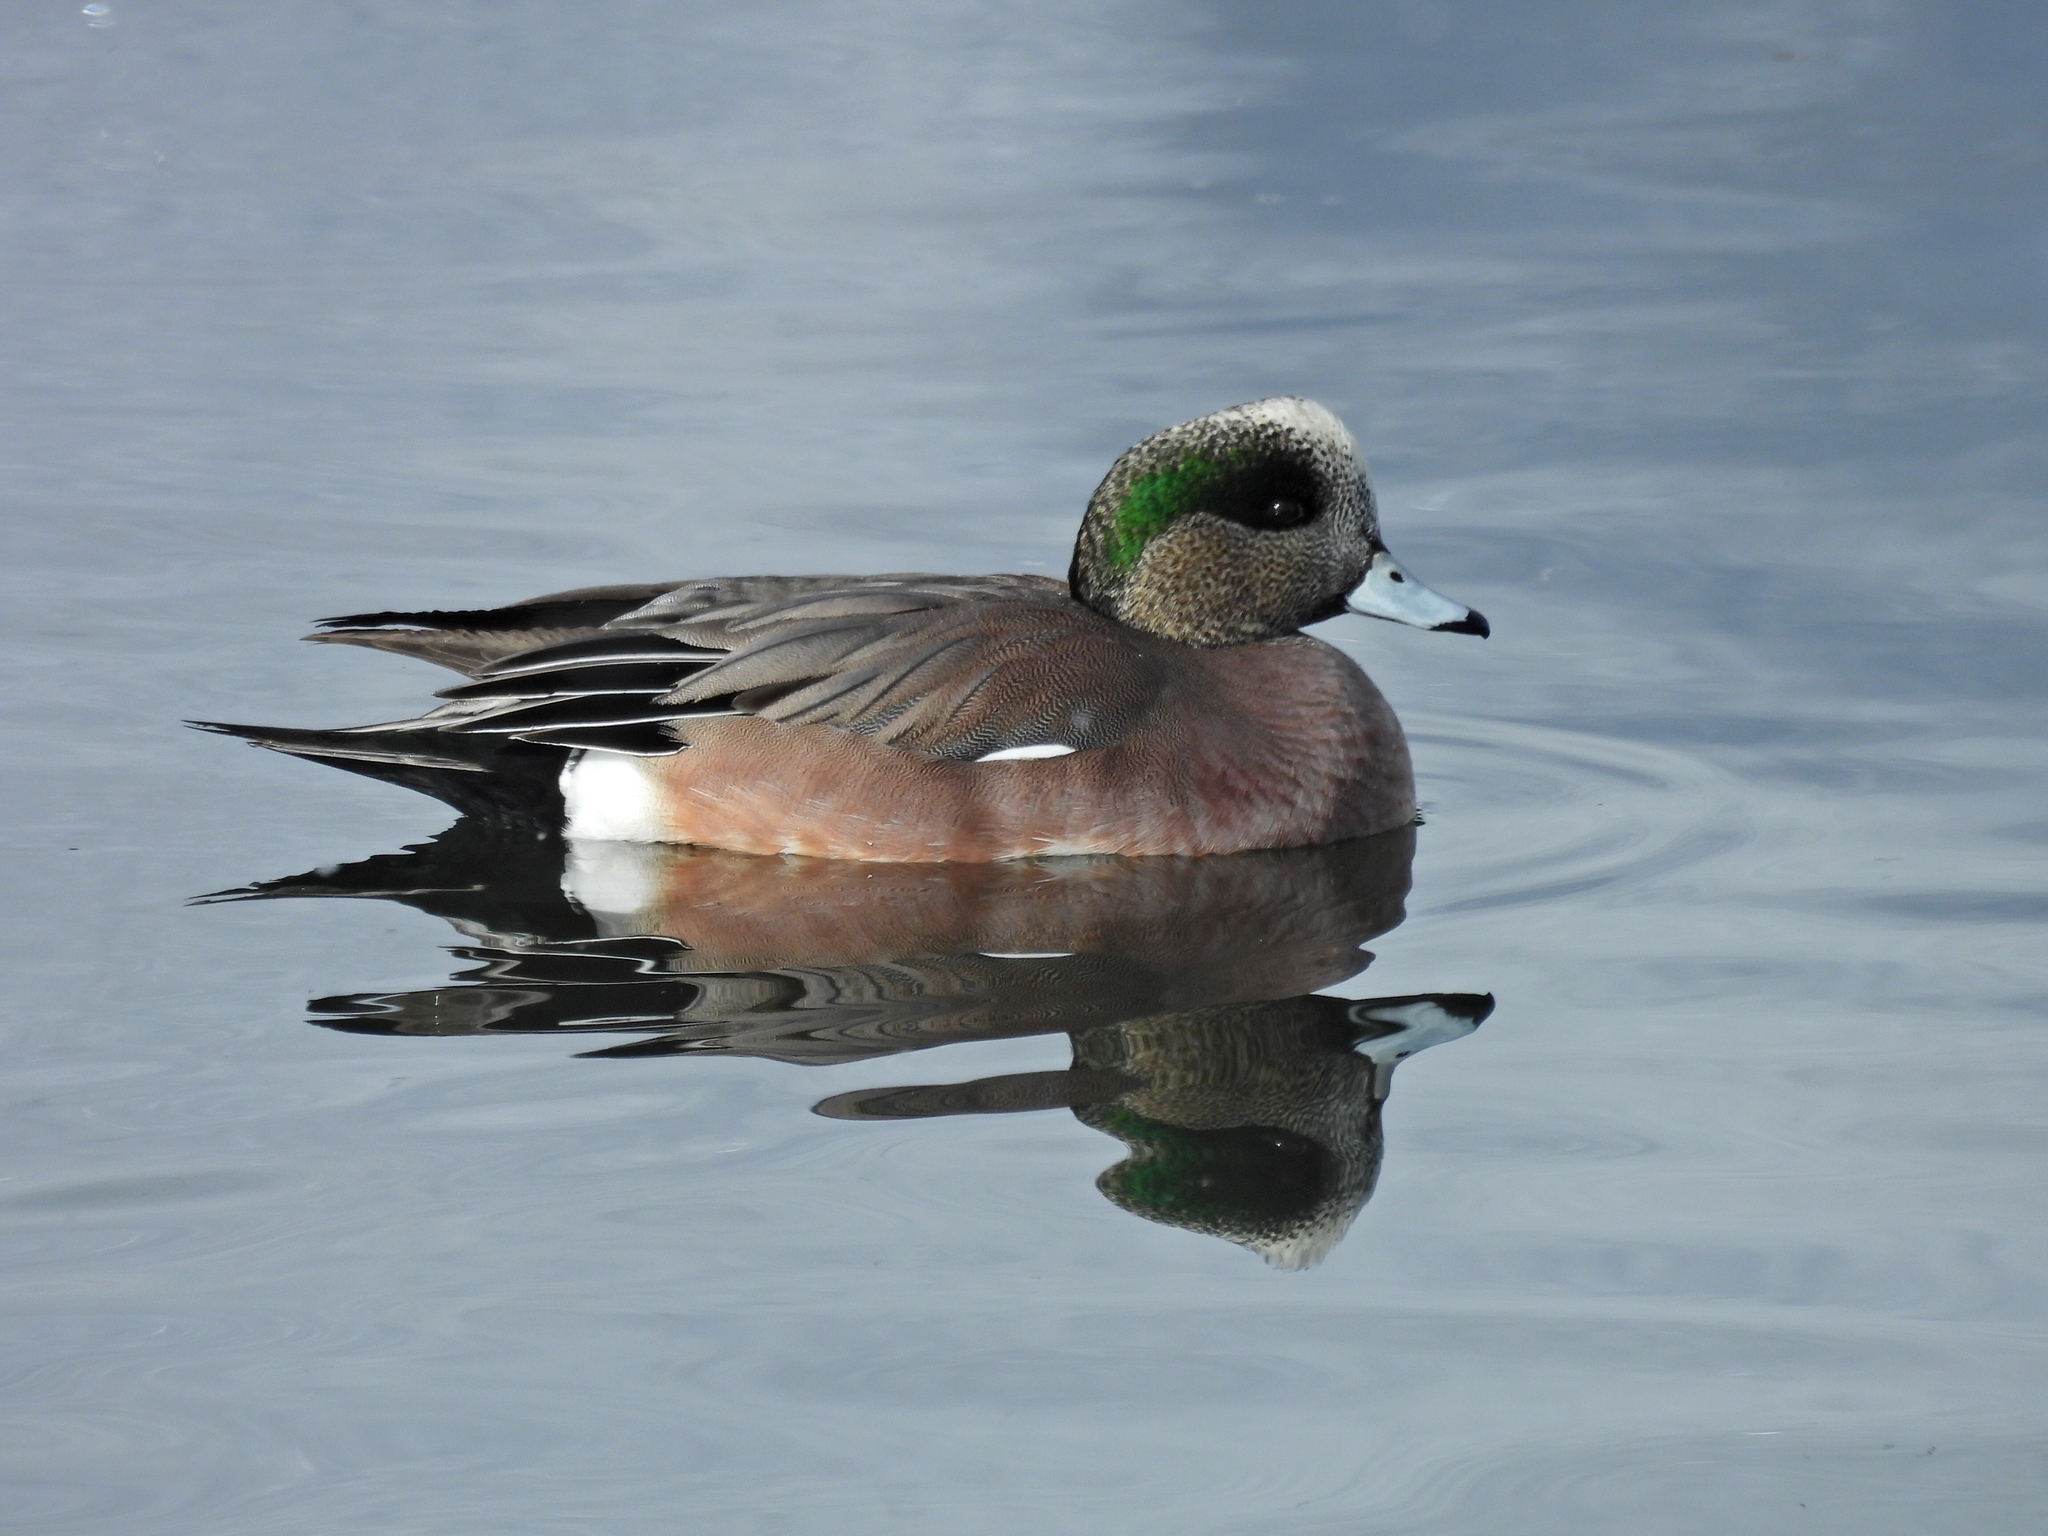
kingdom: Animalia
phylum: Chordata
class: Aves
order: Anseriformes
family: Anatidae
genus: Mareca
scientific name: Mareca americana
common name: American wigeon
